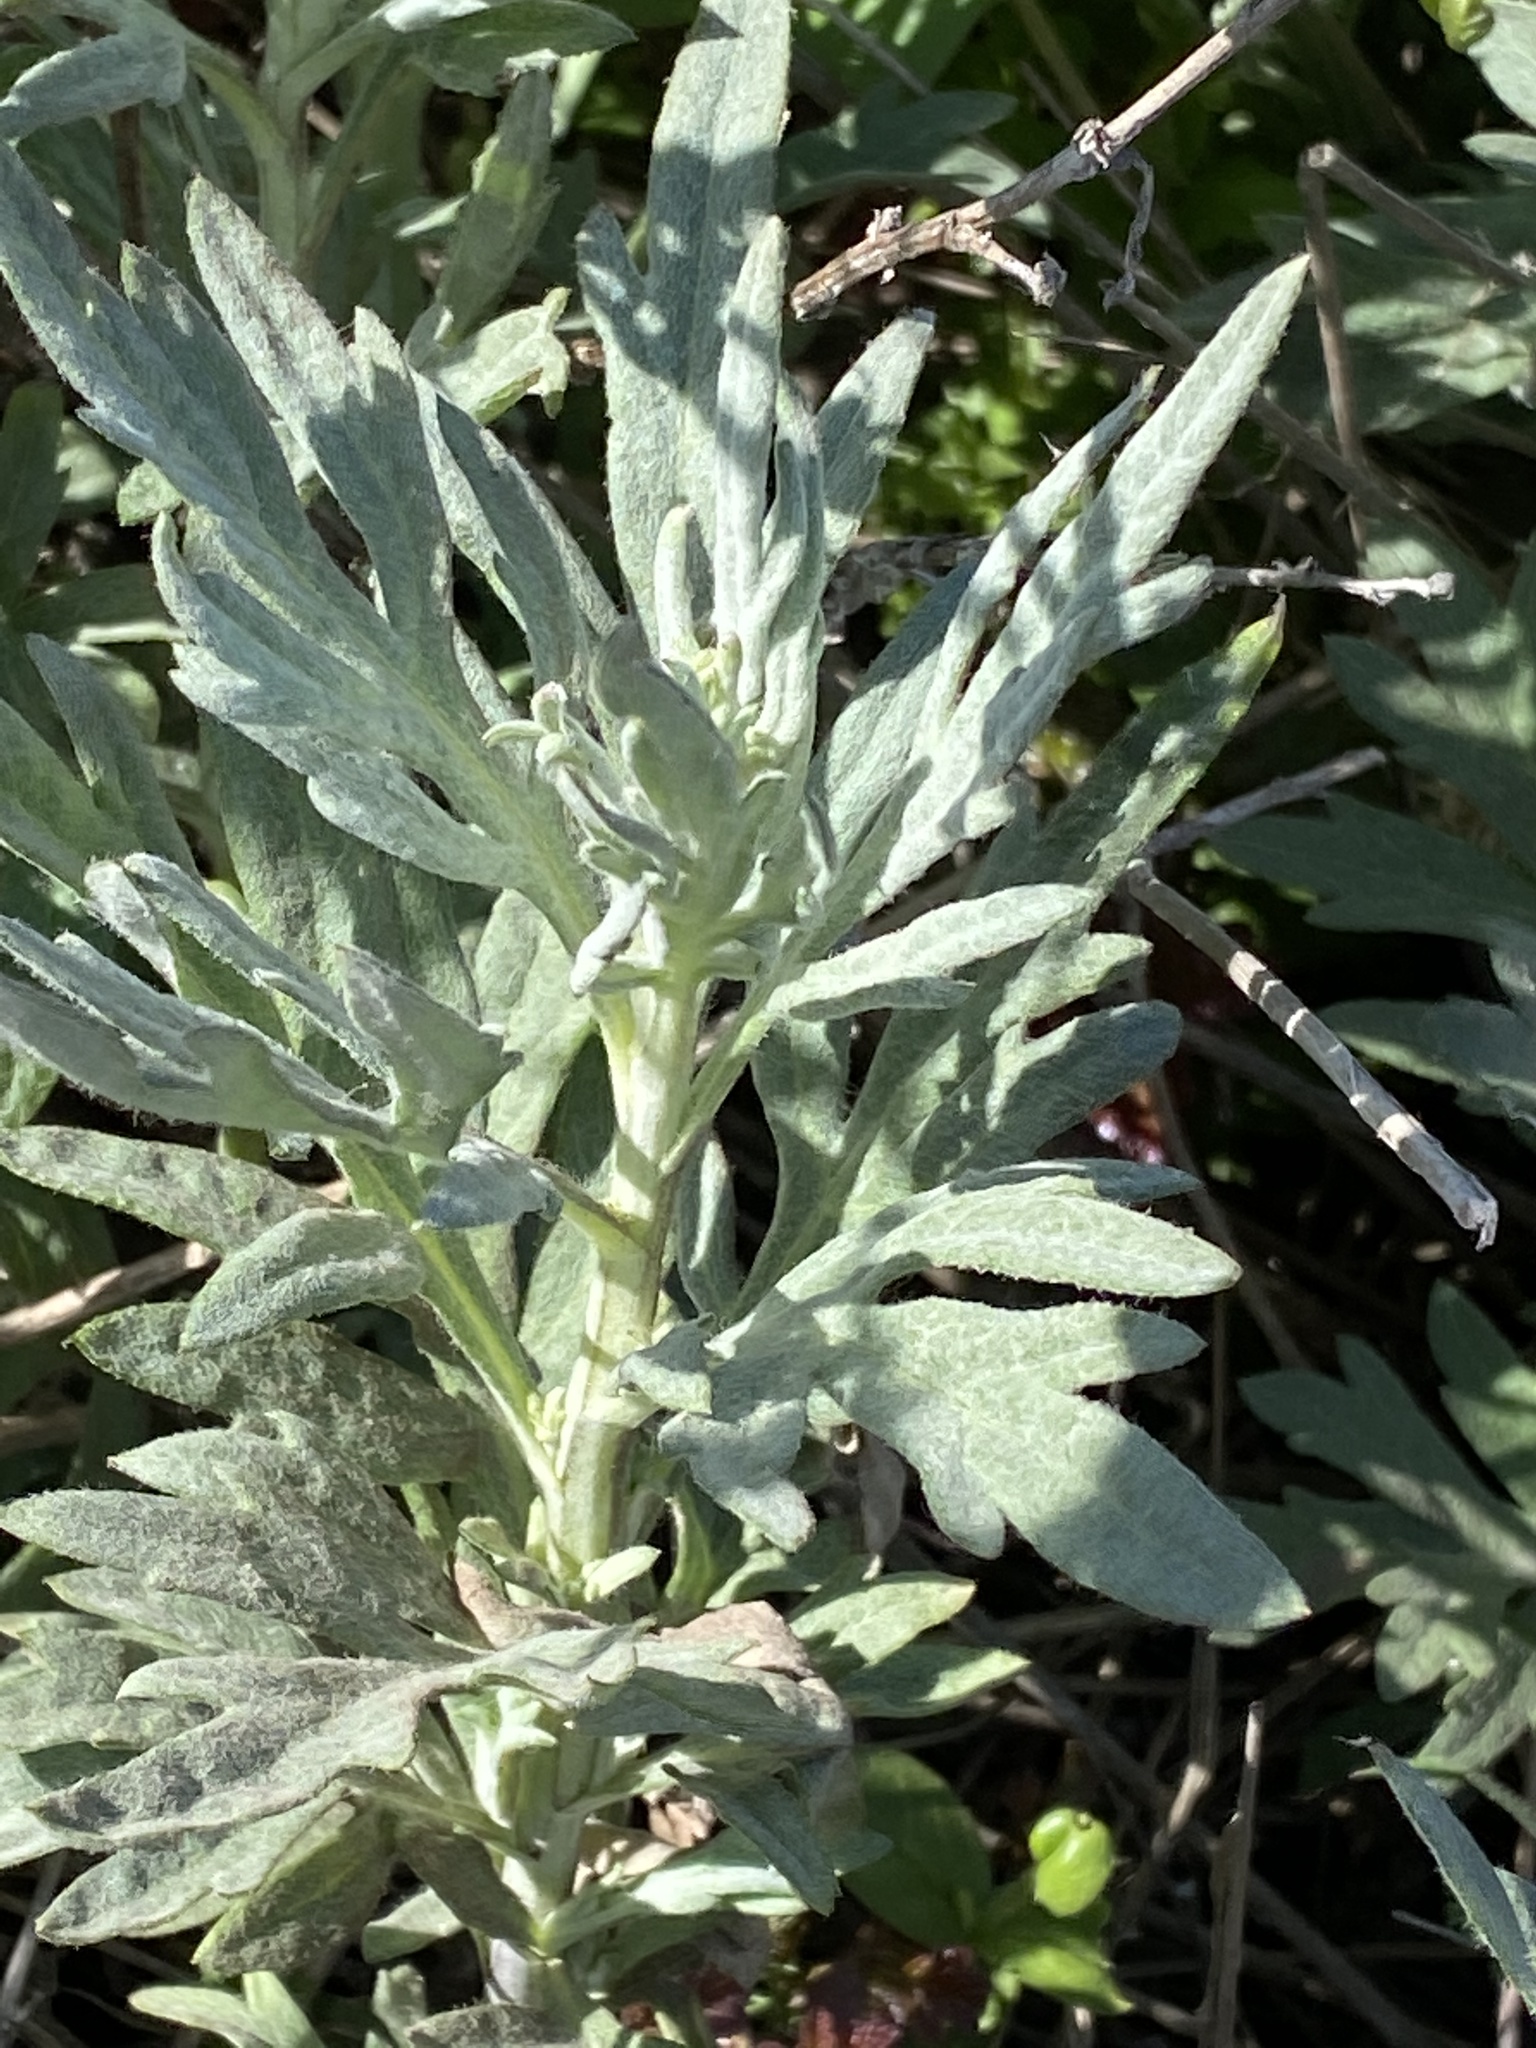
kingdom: Plantae
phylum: Tracheophyta
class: Magnoliopsida
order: Asterales
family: Asteraceae
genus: Artemisia
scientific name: Artemisia douglasiana
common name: Northwest mugwort
